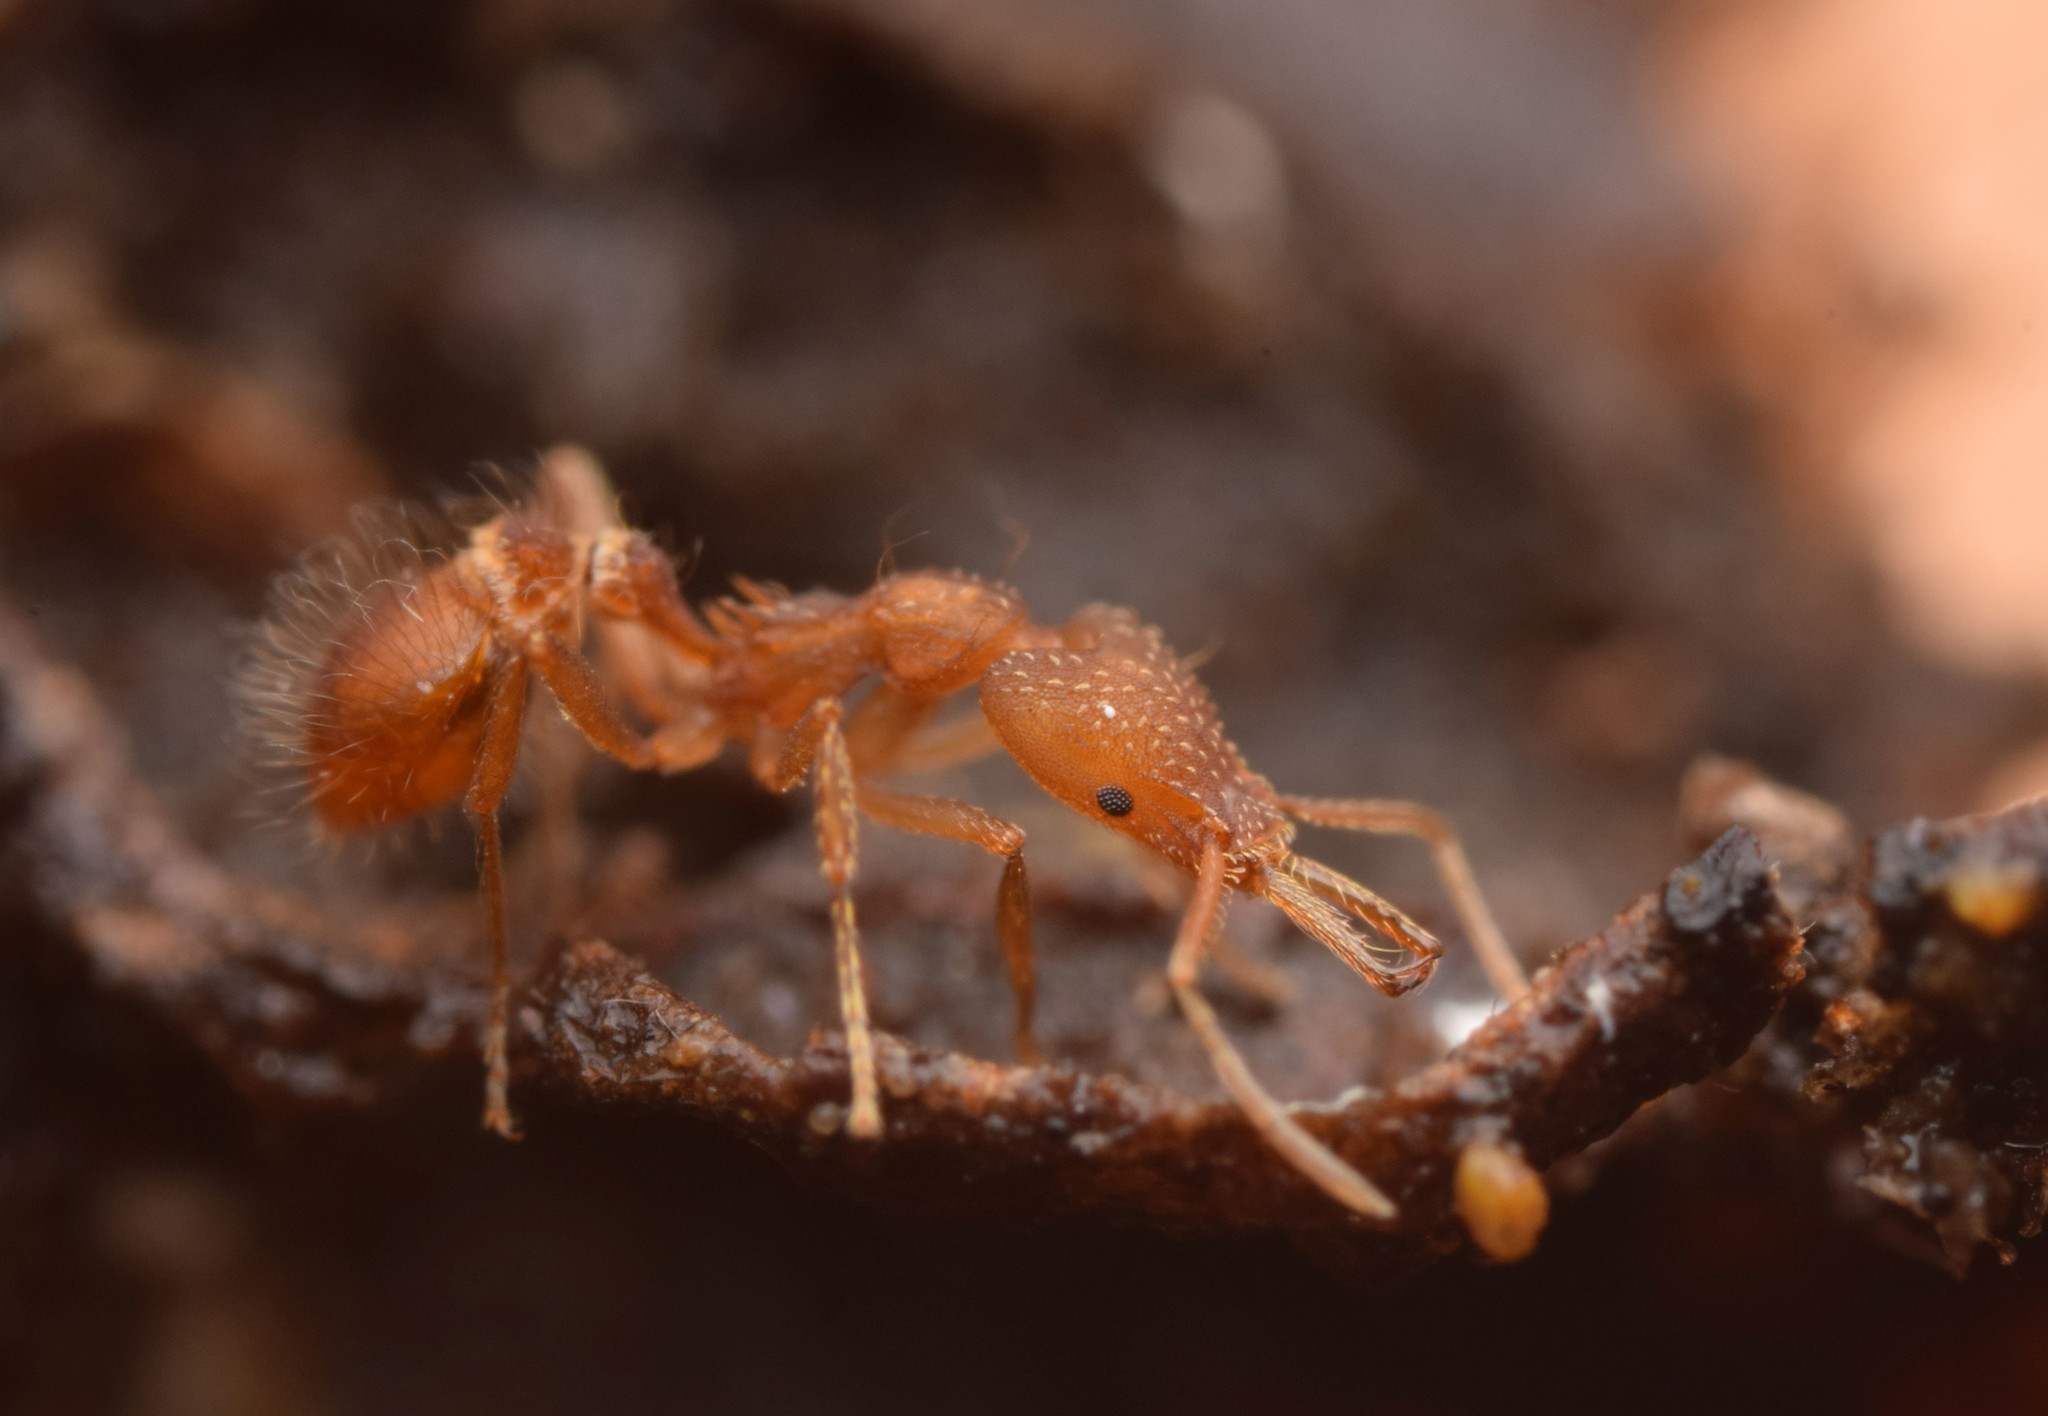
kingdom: Animalia
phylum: Arthropoda
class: Insecta
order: Hymenoptera
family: Formicidae
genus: Strumigenys
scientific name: Strumigenys trinidadensis
